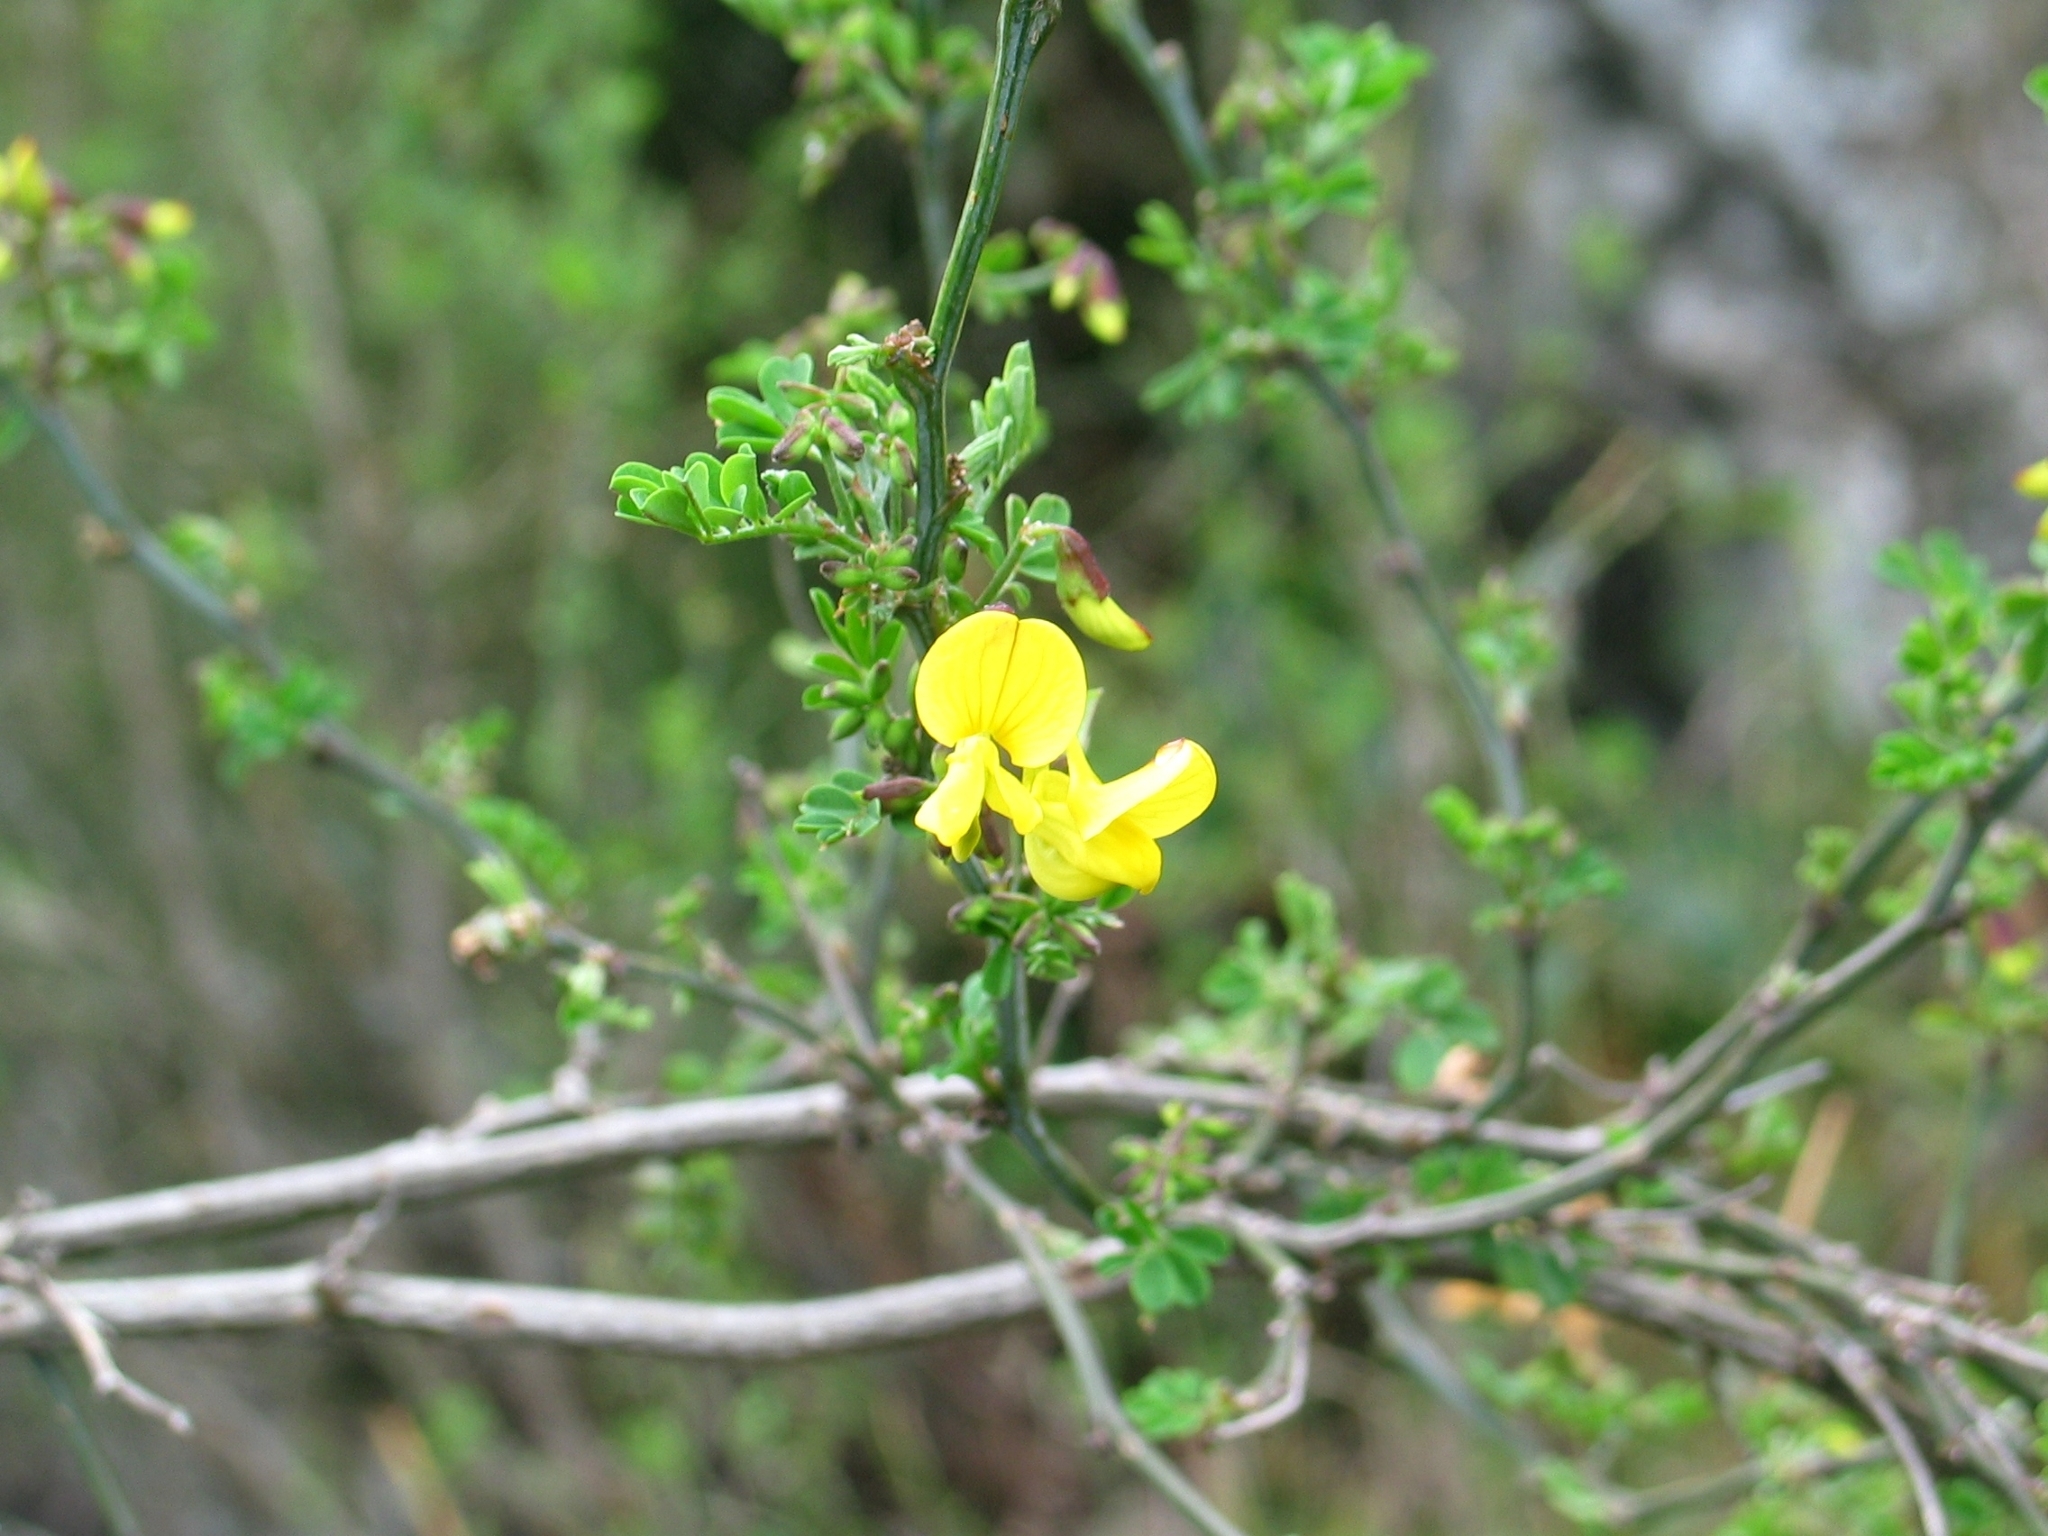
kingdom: Plantae
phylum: Tracheophyta
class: Magnoliopsida
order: Fabales
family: Fabaceae
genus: Hippocrepis
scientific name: Hippocrepis emerus
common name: Scorpion senna
